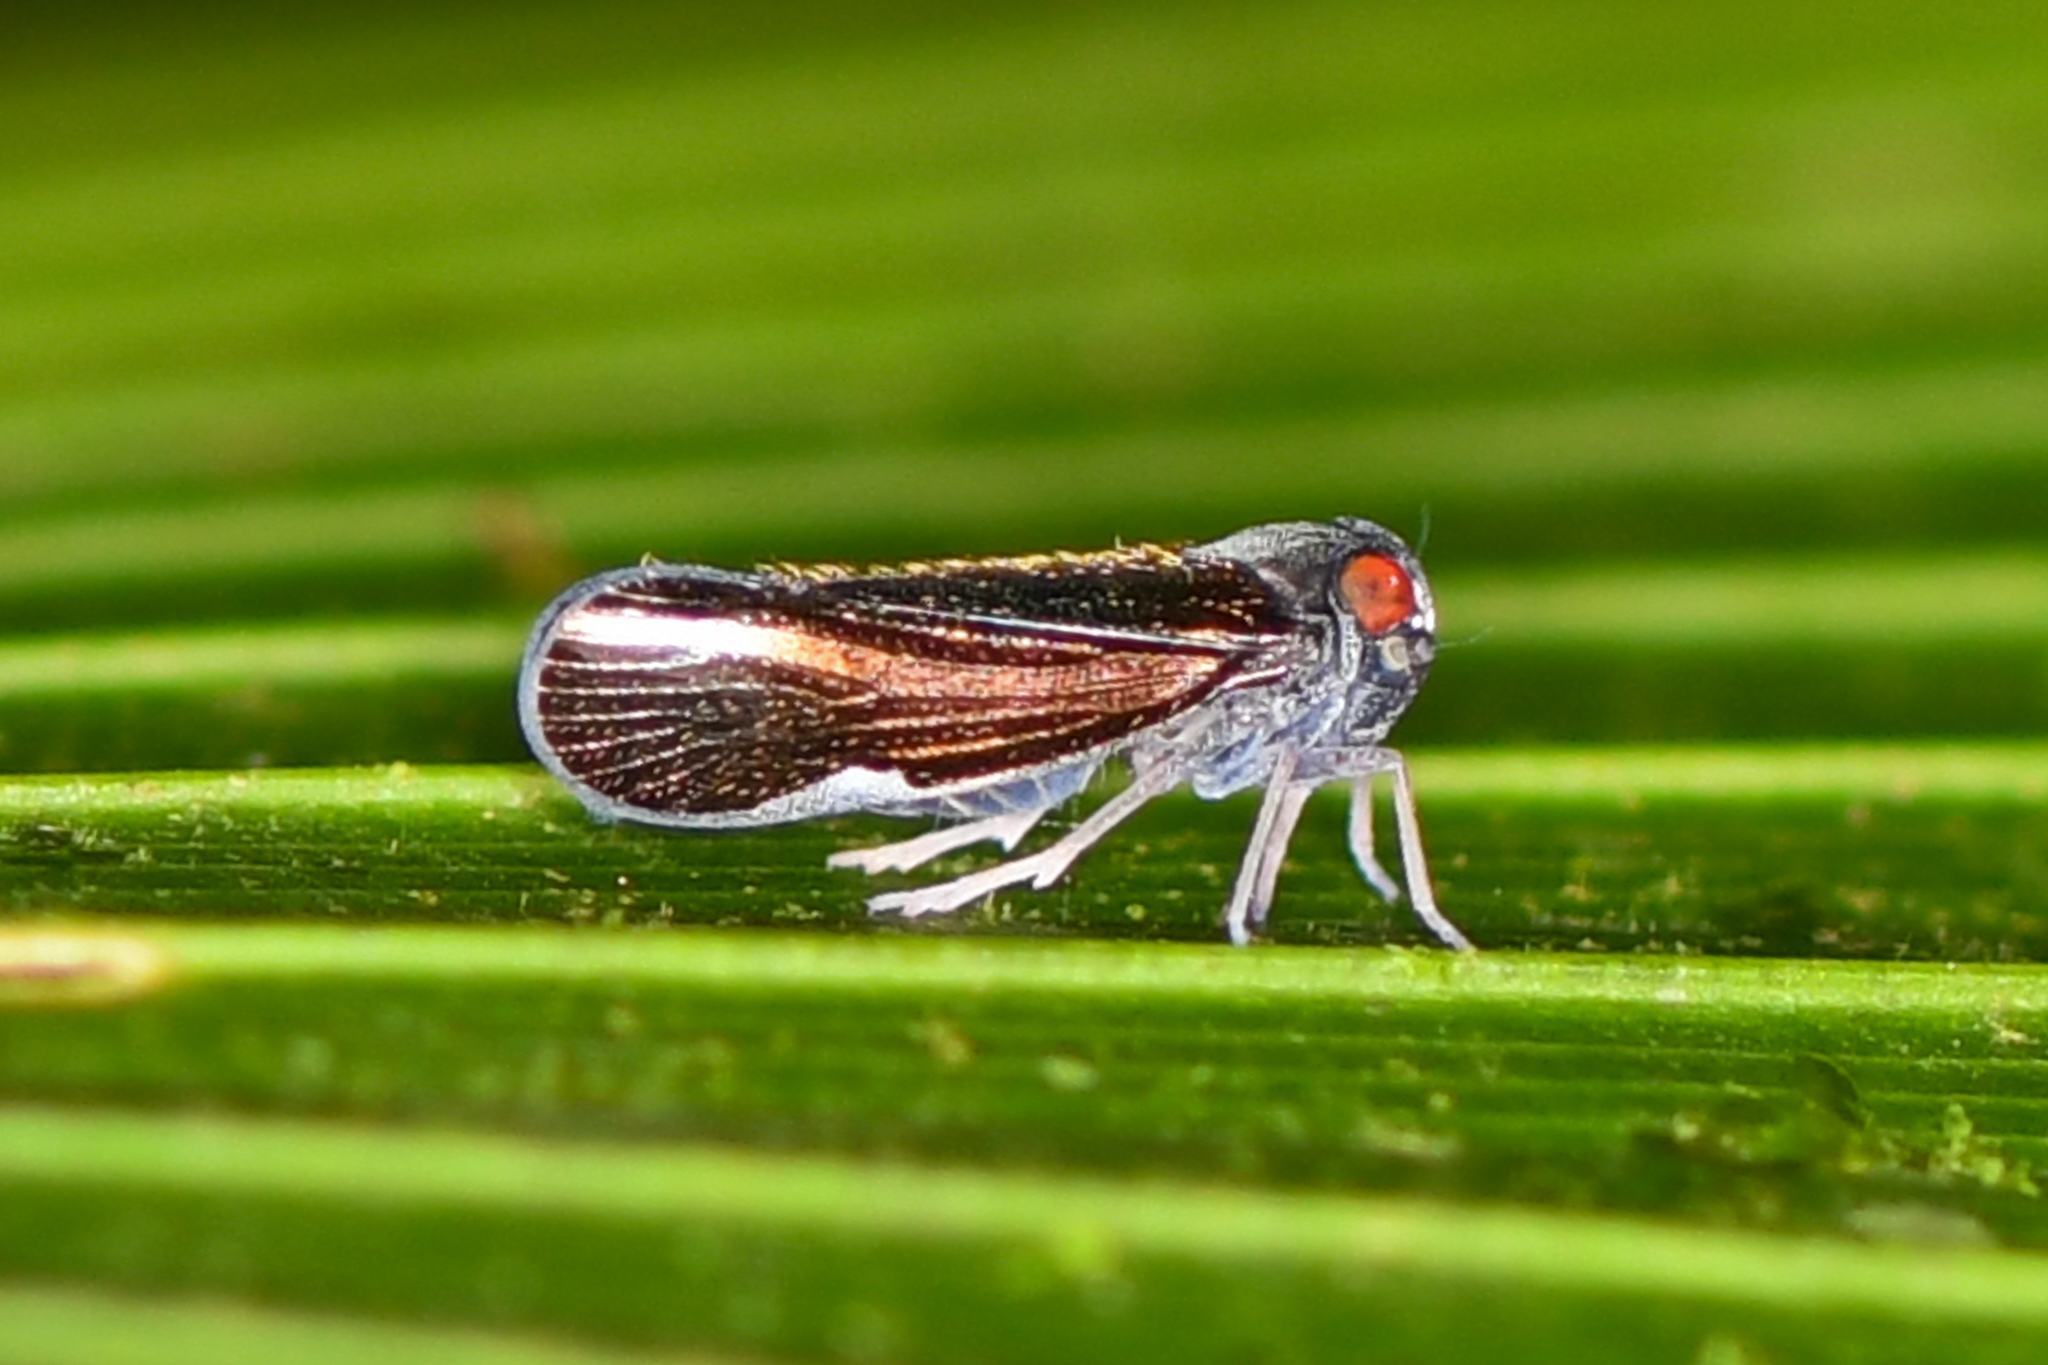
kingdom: Animalia
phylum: Arthropoda
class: Insecta
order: Hemiptera
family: Cixiidae
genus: Muirolonia
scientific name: Muirolonia metallica
